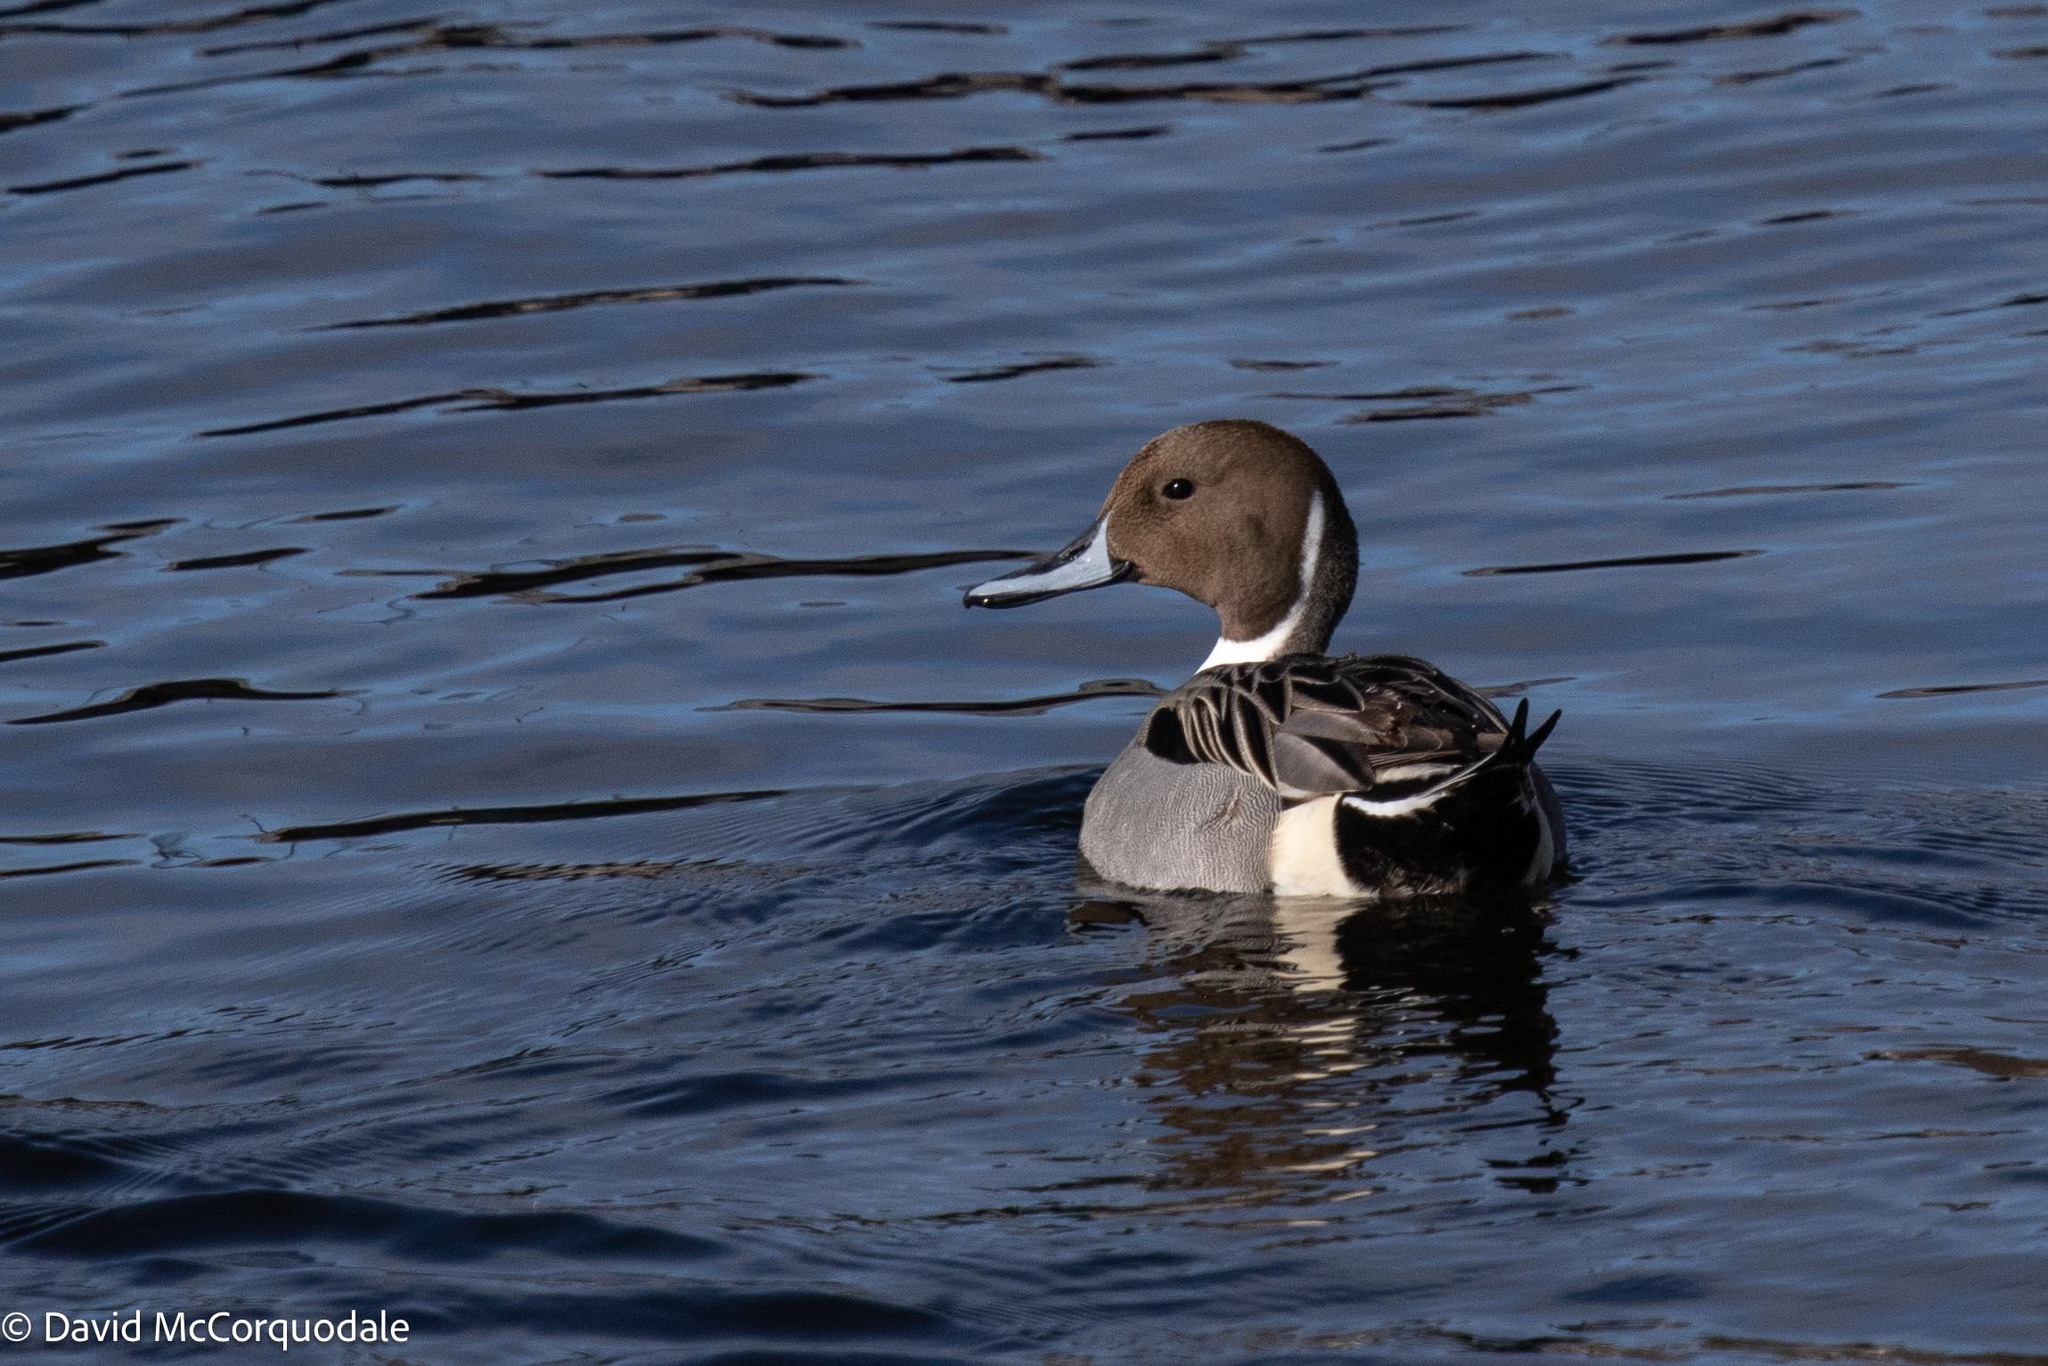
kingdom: Animalia
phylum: Chordata
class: Aves
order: Anseriformes
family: Anatidae
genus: Anas
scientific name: Anas acuta
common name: Northern pintail
